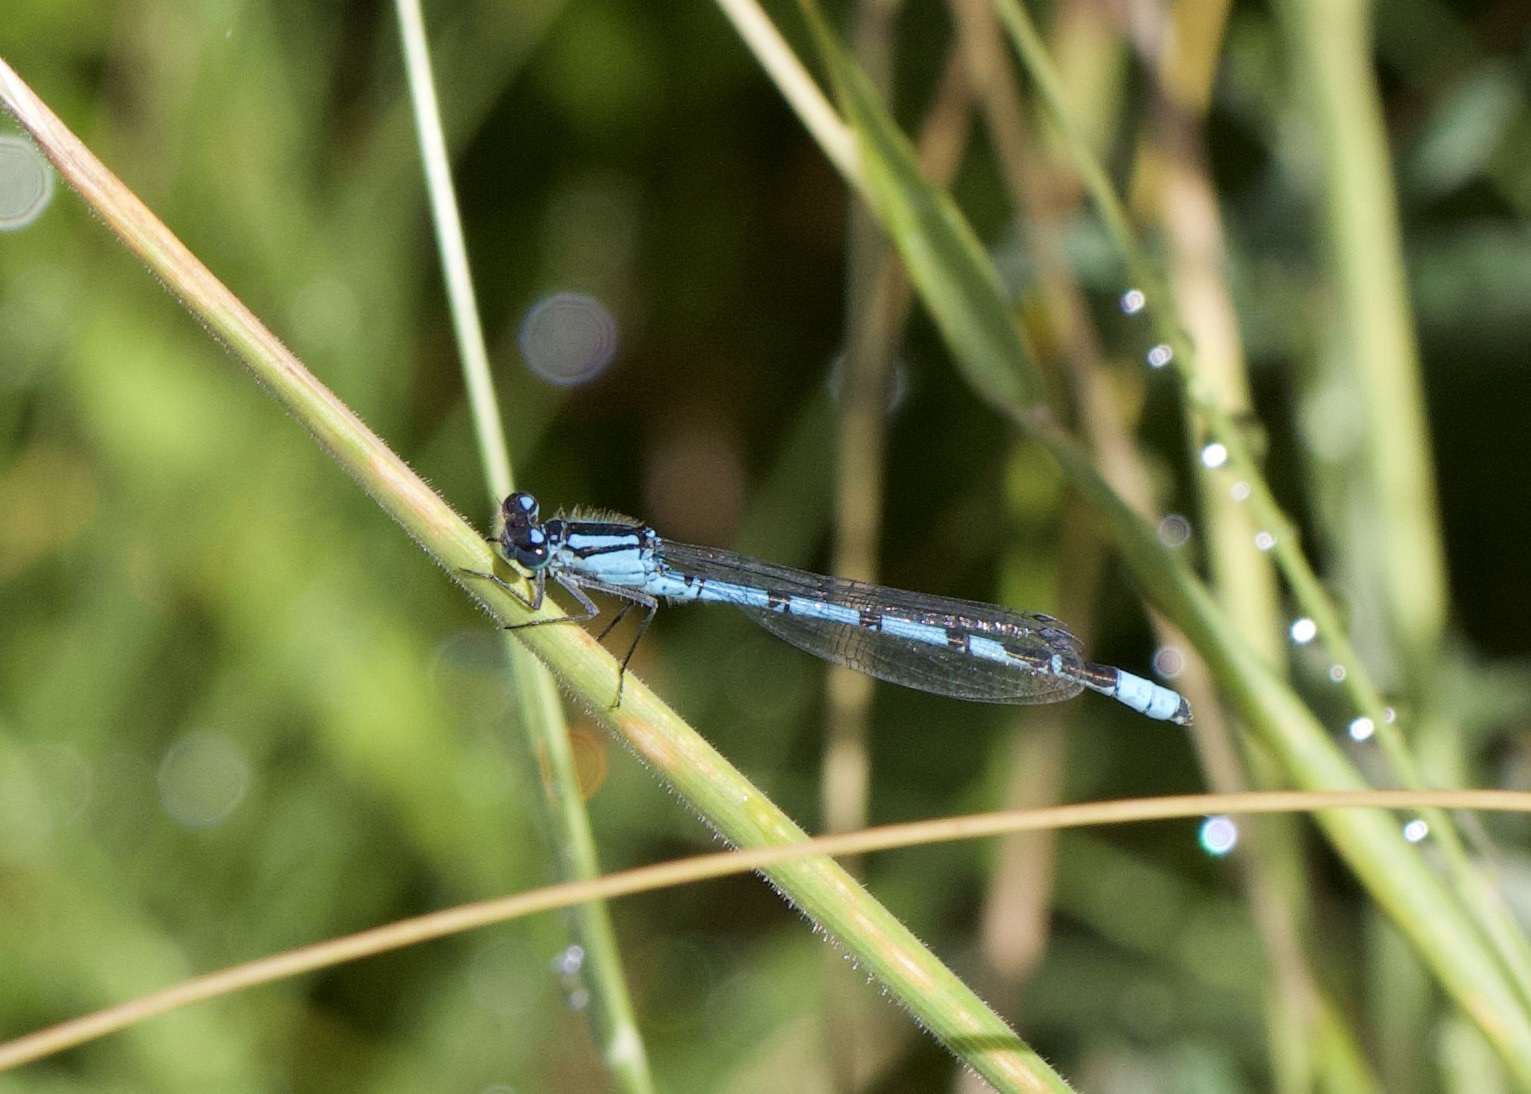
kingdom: Animalia
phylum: Arthropoda
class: Insecta
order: Odonata
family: Coenagrionidae
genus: Enallagma
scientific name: Enallagma cyathigerum
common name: Common blue damselfly
